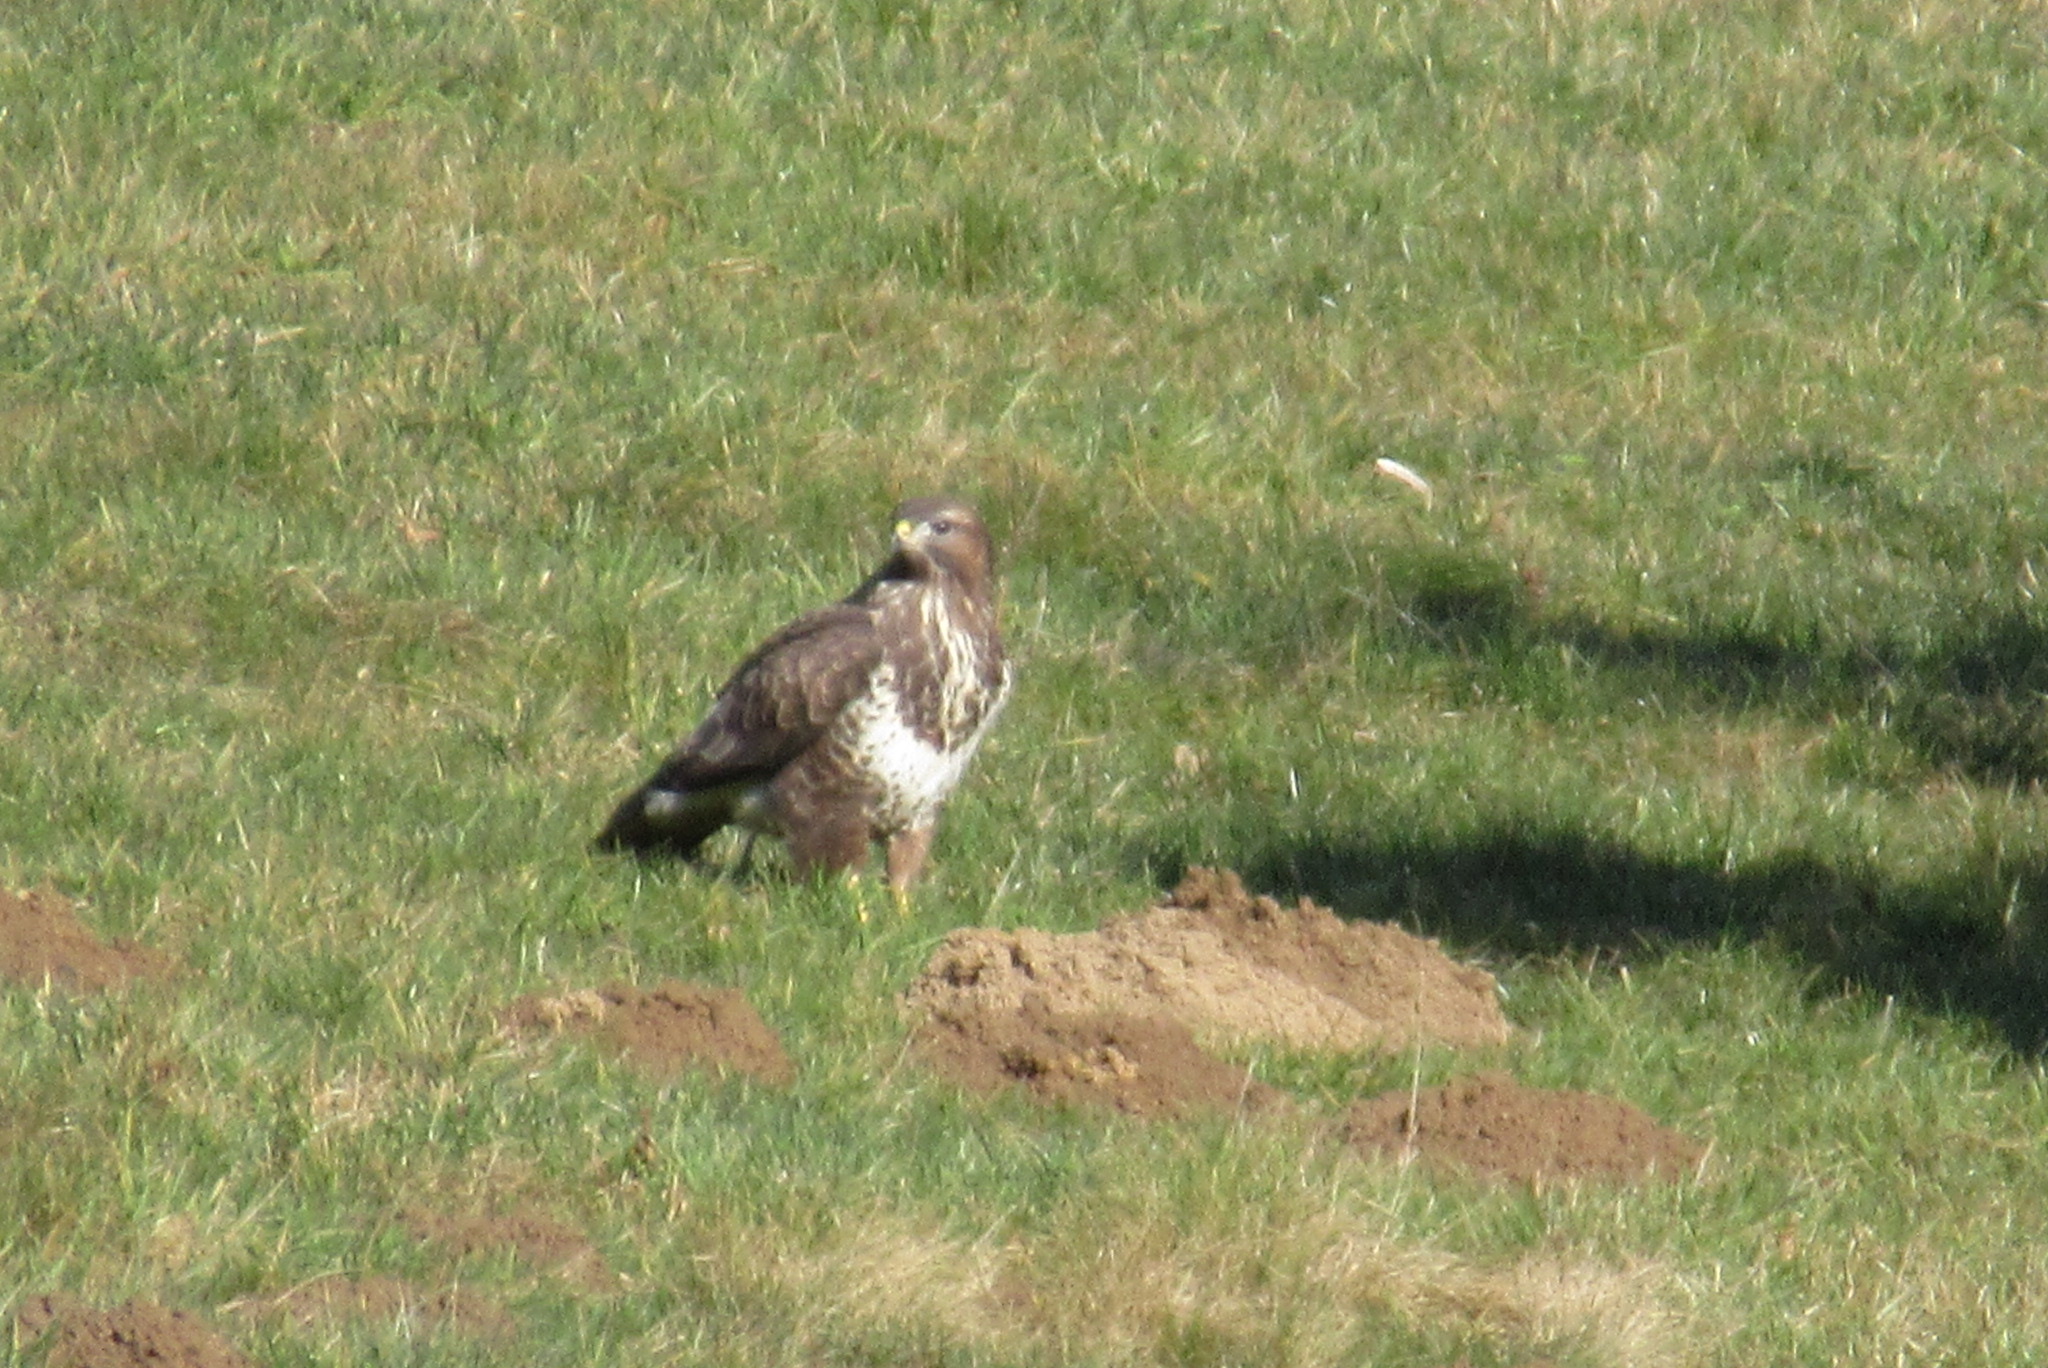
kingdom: Animalia
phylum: Chordata
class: Aves
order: Accipitriformes
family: Accipitridae
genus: Buteo
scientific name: Buteo buteo
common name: Common buzzard
